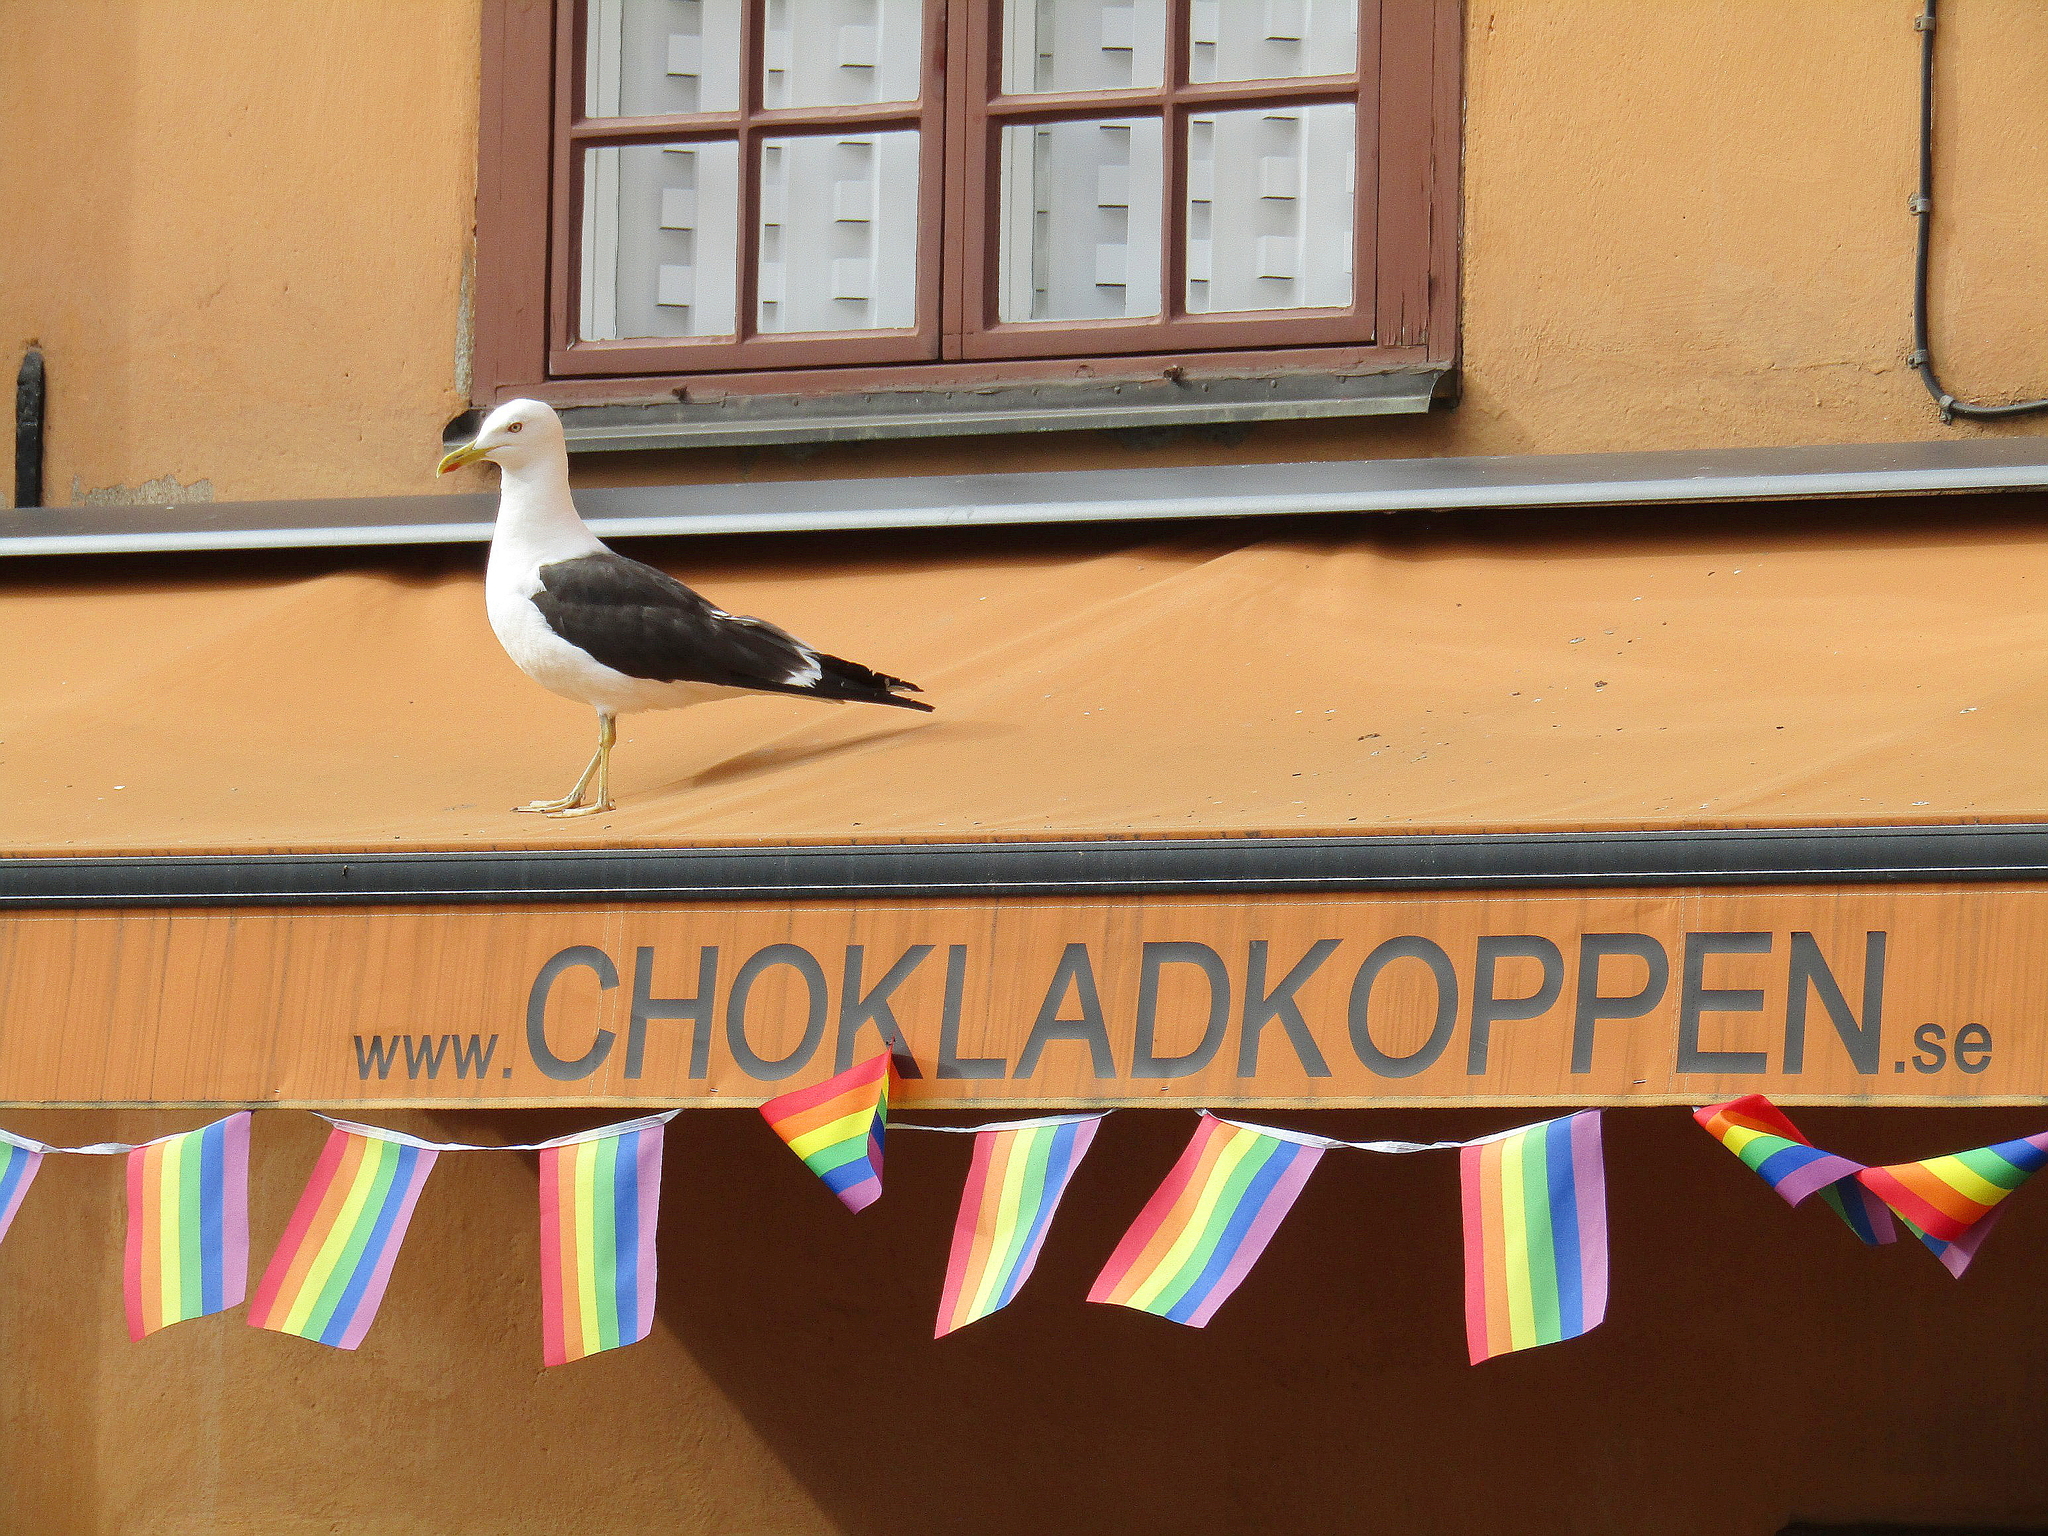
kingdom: Animalia
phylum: Chordata
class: Aves
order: Charadriiformes
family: Laridae
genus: Larus
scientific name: Larus fuscus
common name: Lesser black-backed gull
